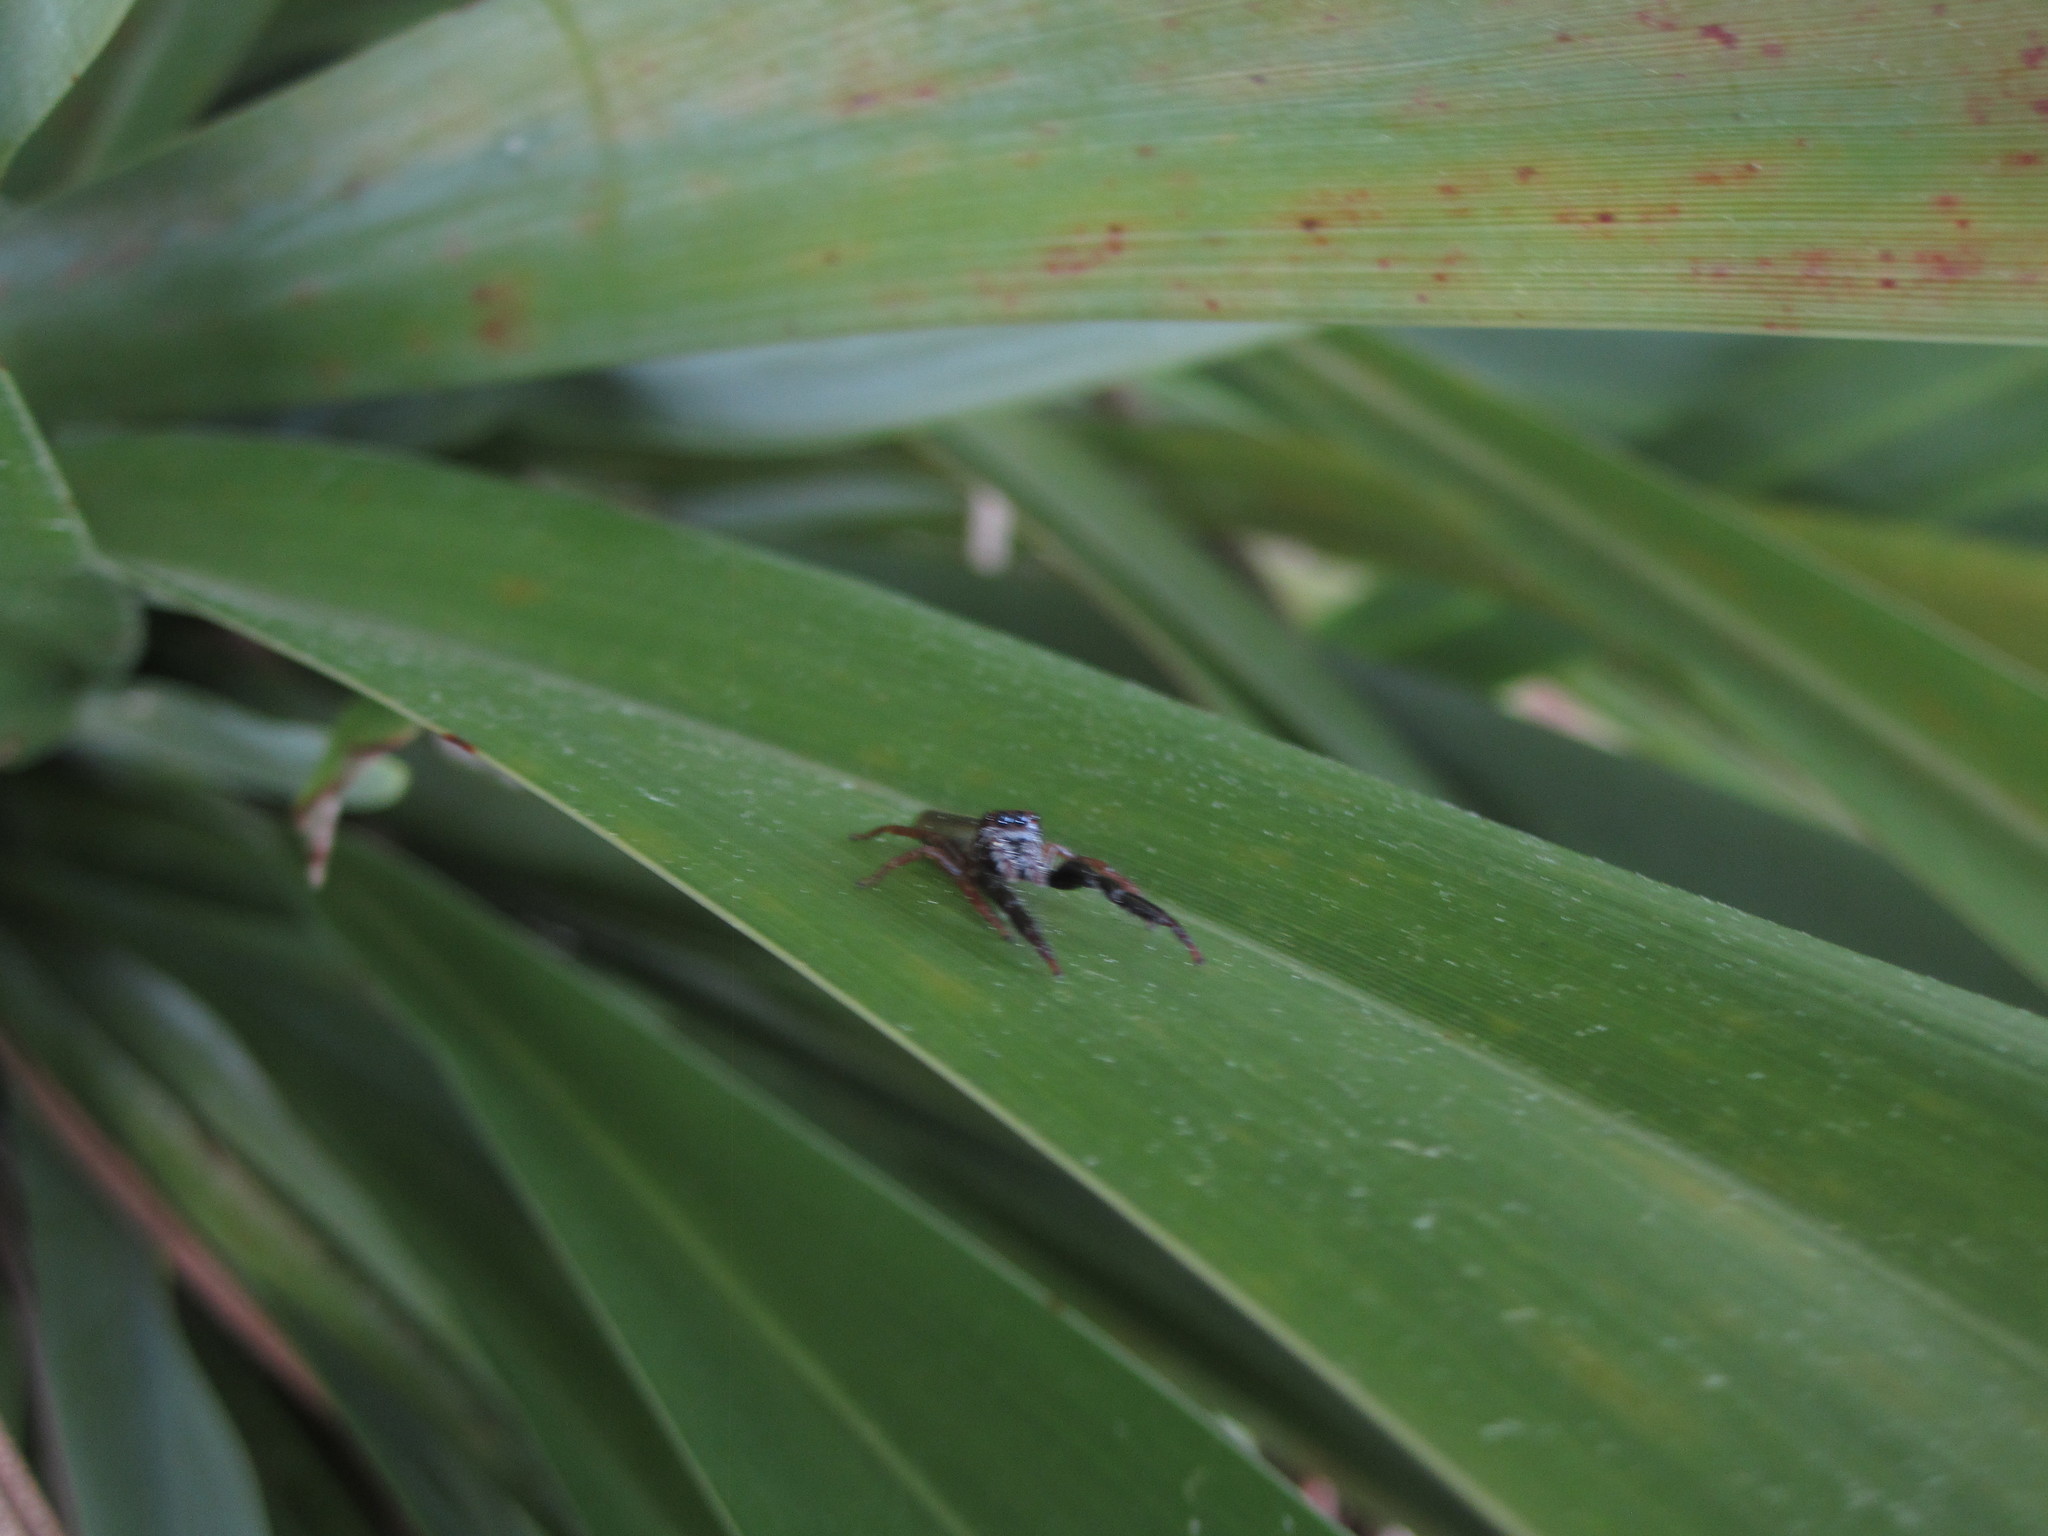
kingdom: Animalia
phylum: Arthropoda
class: Arachnida
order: Araneae
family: Salticidae
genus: Trite
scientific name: Trite planiceps
